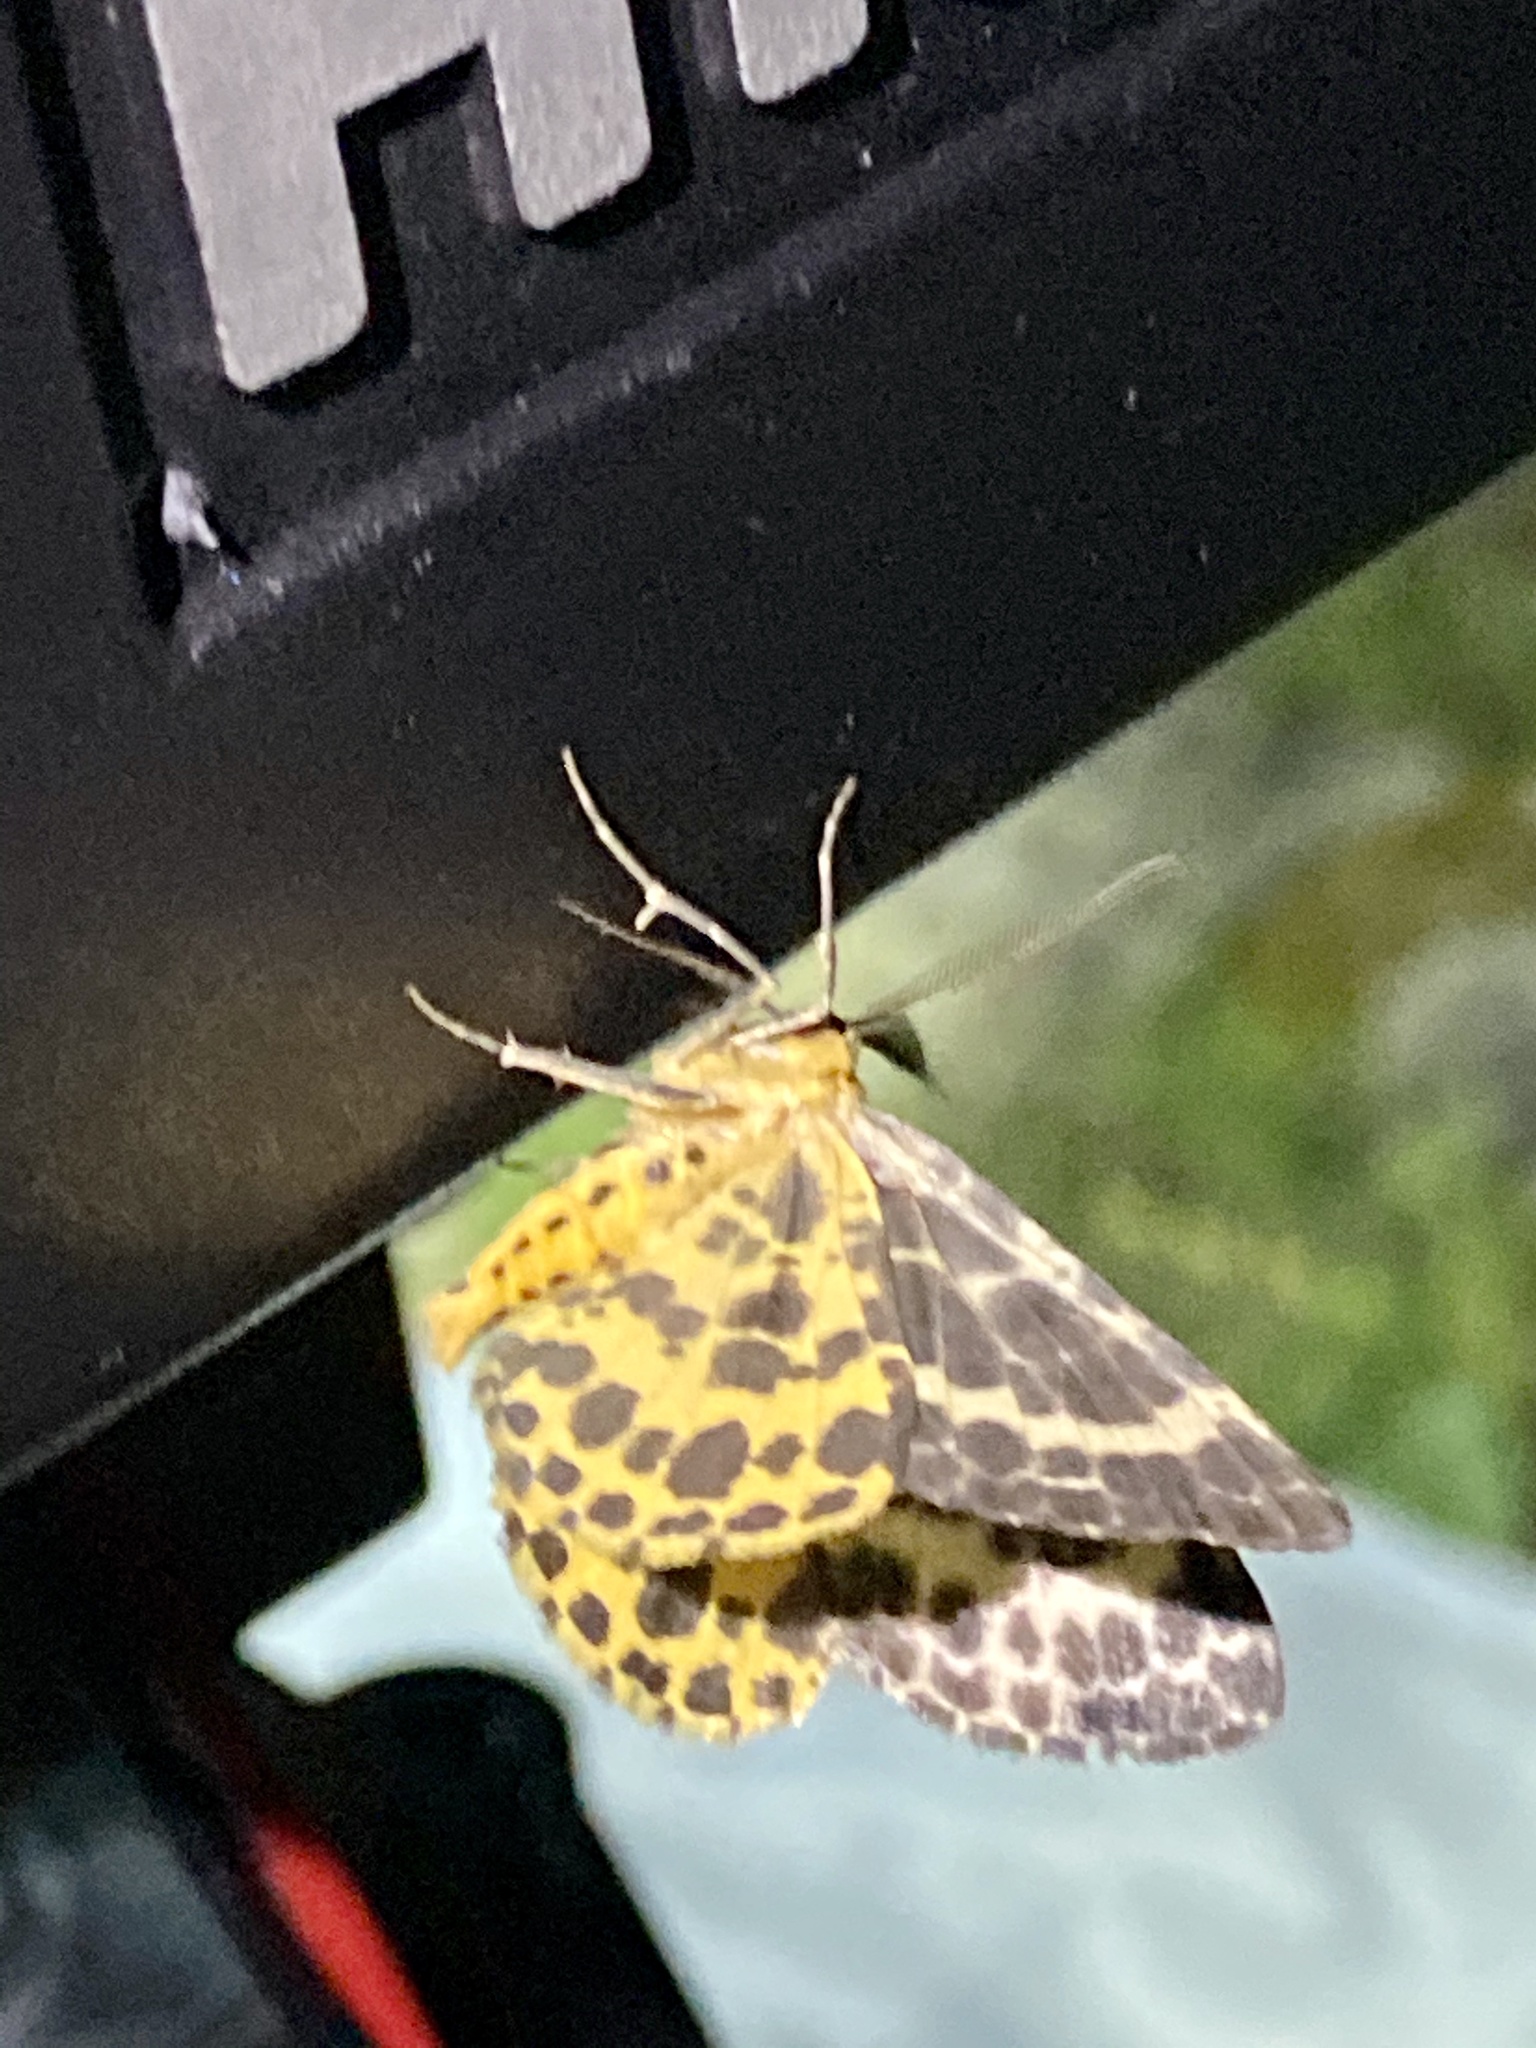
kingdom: Animalia
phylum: Arthropoda
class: Insecta
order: Lepidoptera
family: Geometridae
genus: Arichanna
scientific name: Arichanna melanaria
